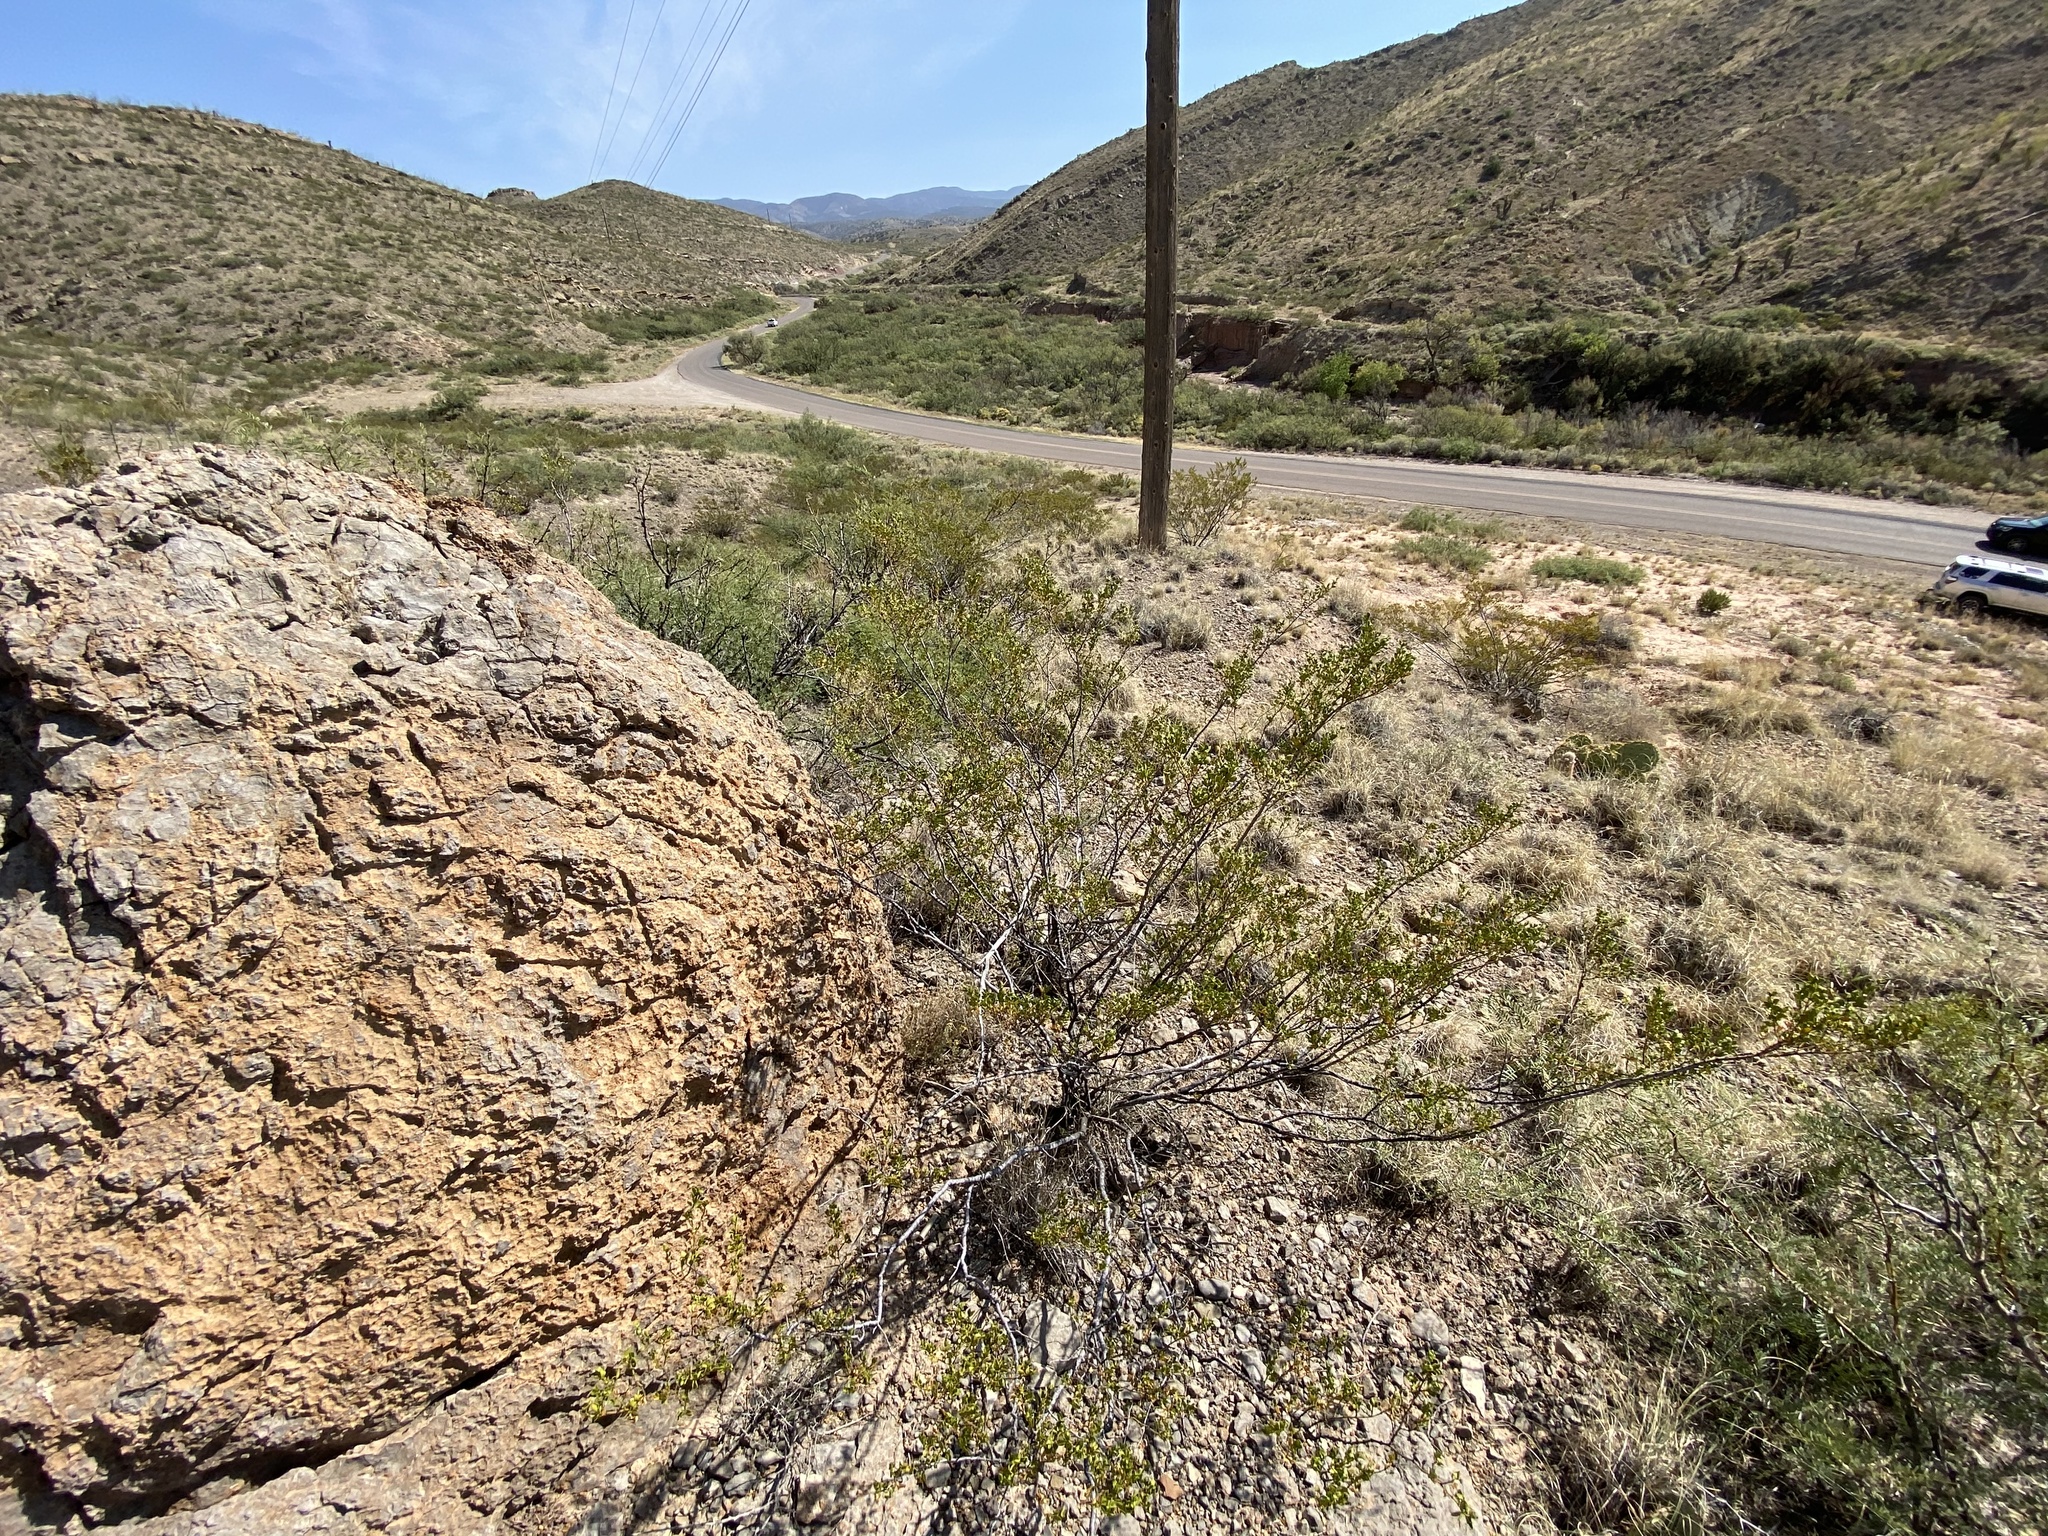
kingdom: Plantae
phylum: Tracheophyta
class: Magnoliopsida
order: Zygophyllales
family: Zygophyllaceae
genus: Larrea
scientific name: Larrea tridentata
